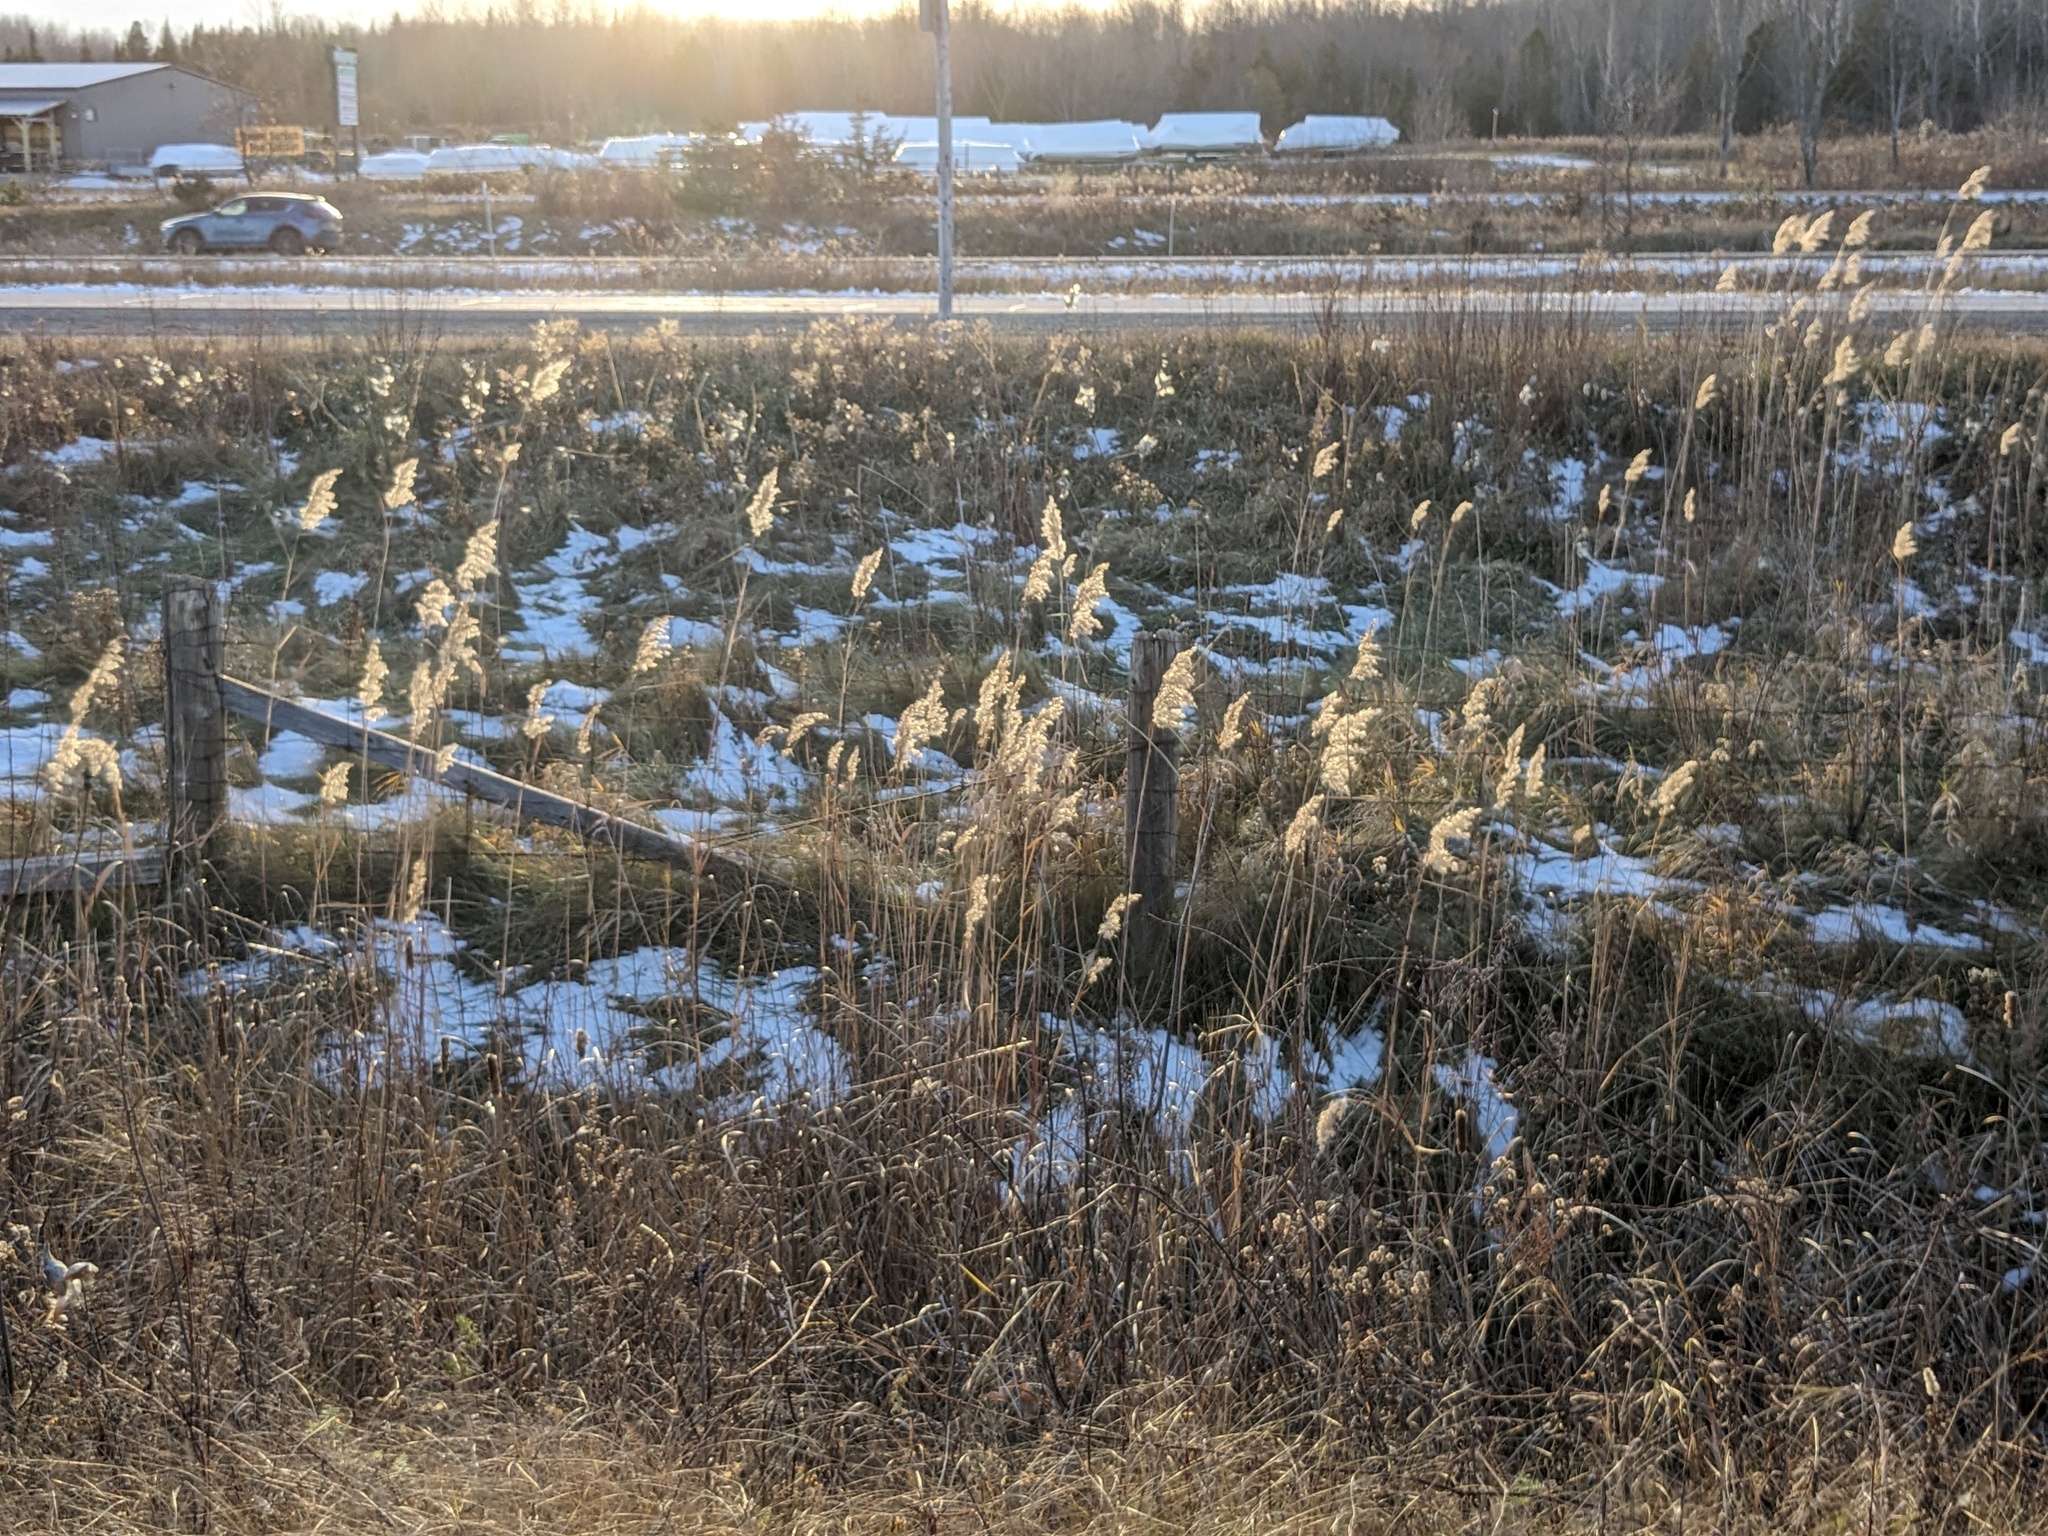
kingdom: Plantae
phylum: Tracheophyta
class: Liliopsida
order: Poales
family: Poaceae
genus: Phragmites
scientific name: Phragmites australis
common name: Common reed
